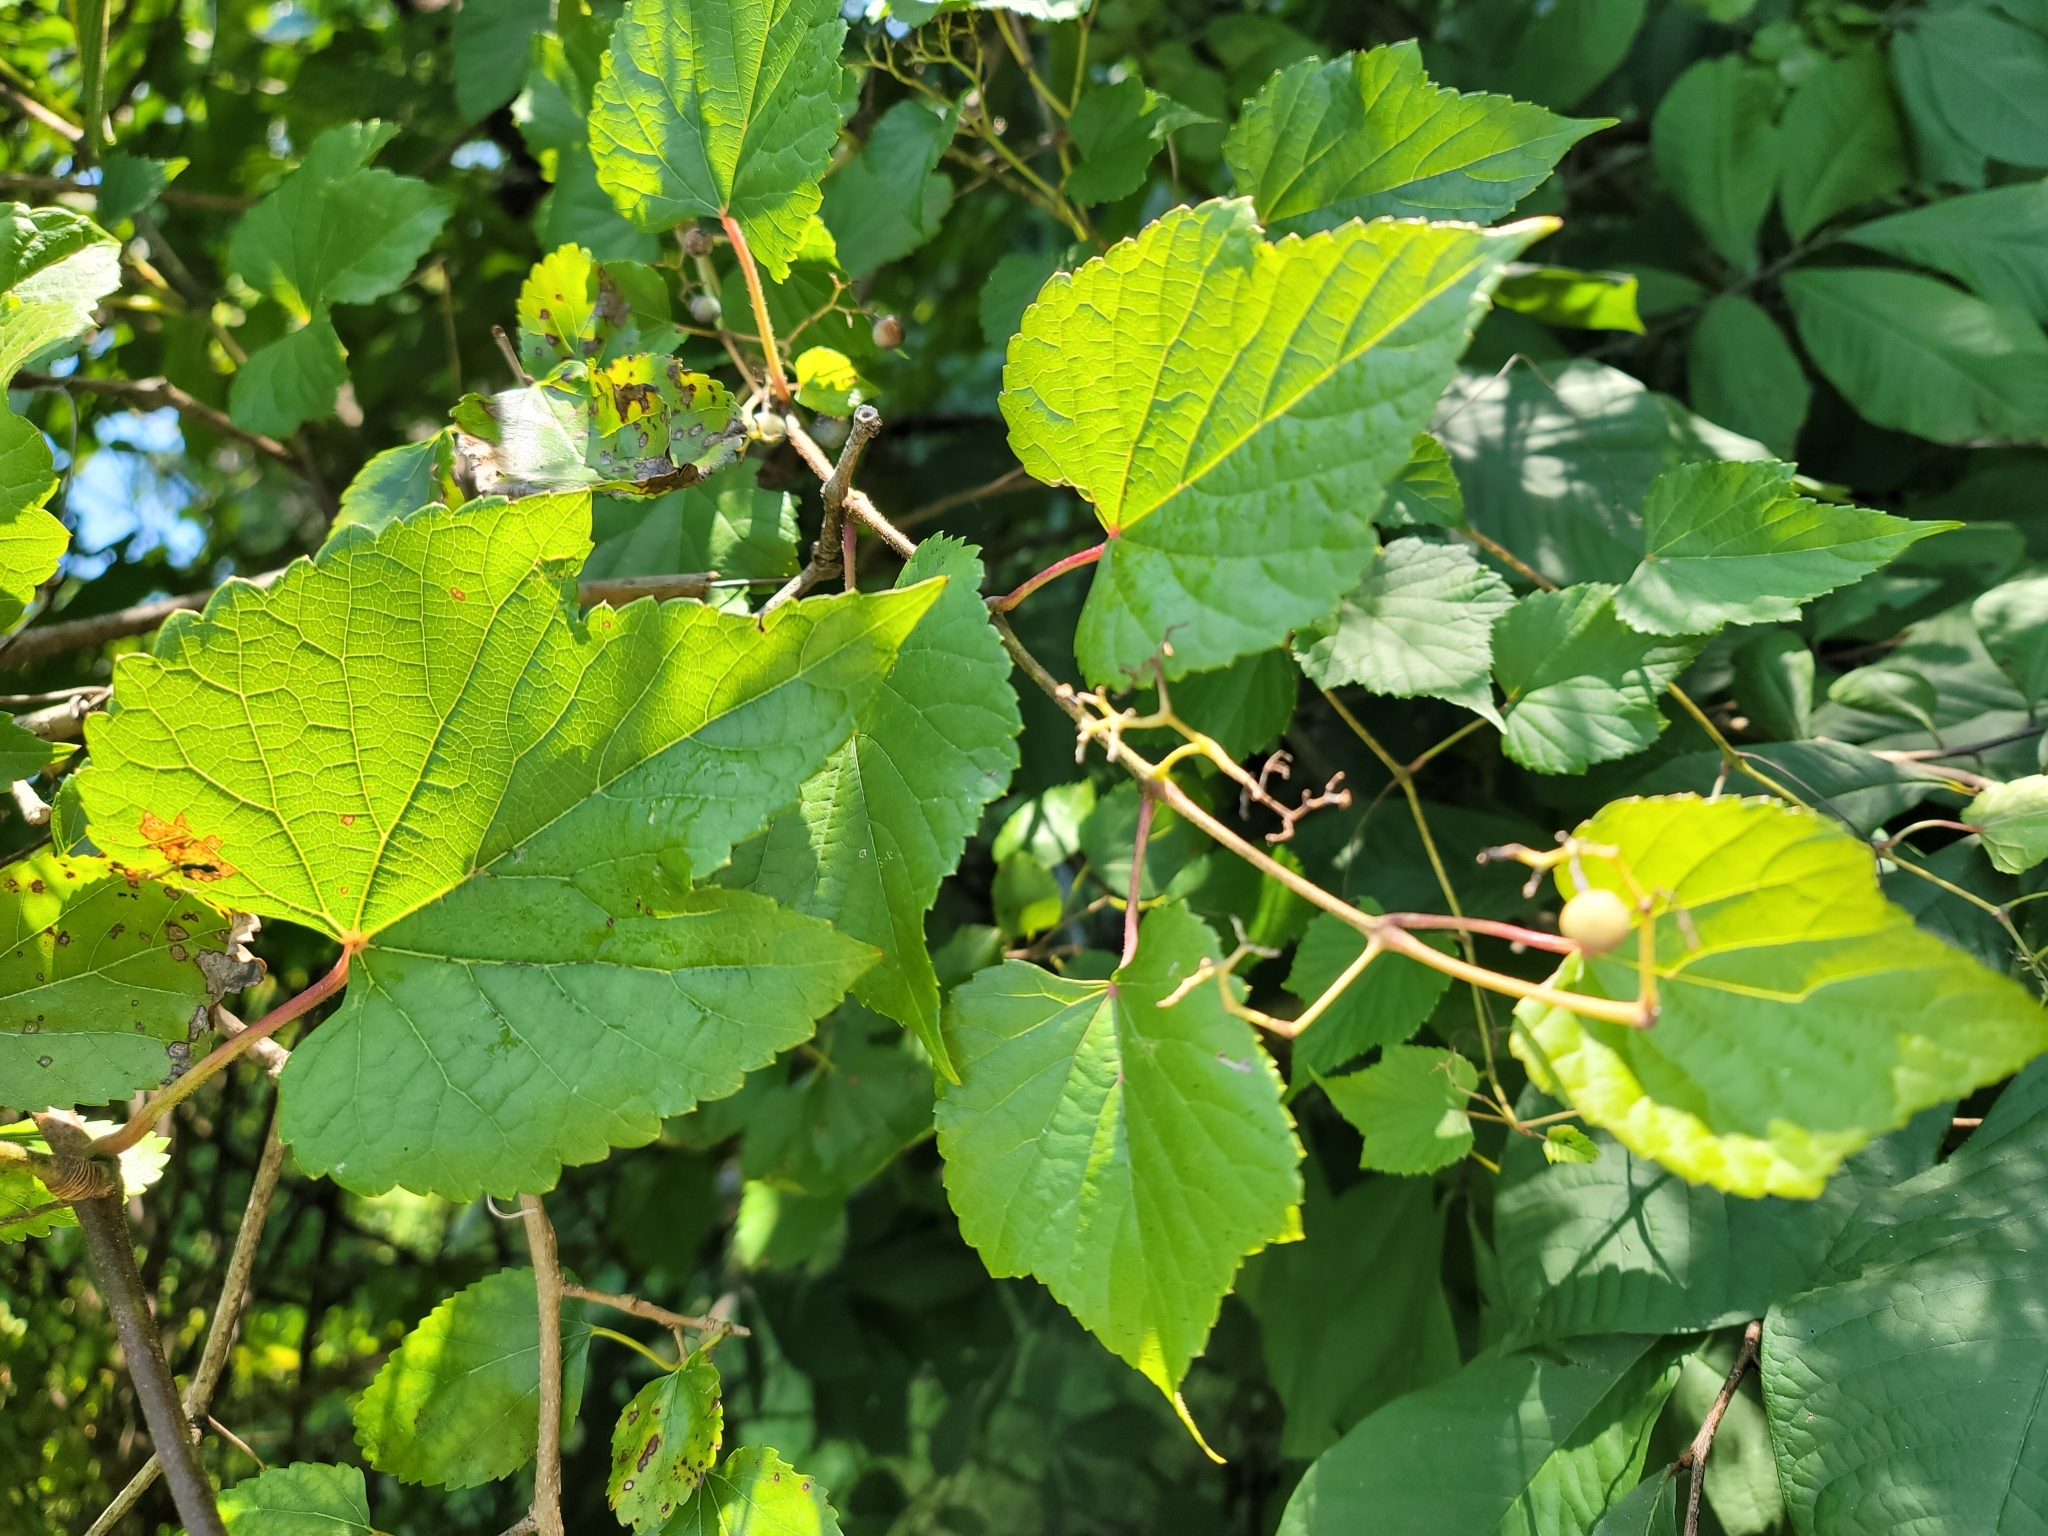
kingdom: Plantae
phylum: Tracheophyta
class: Magnoliopsida
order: Vitales
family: Vitaceae
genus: Ampelopsis
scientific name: Ampelopsis glandulosa
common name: Amur peppervine
